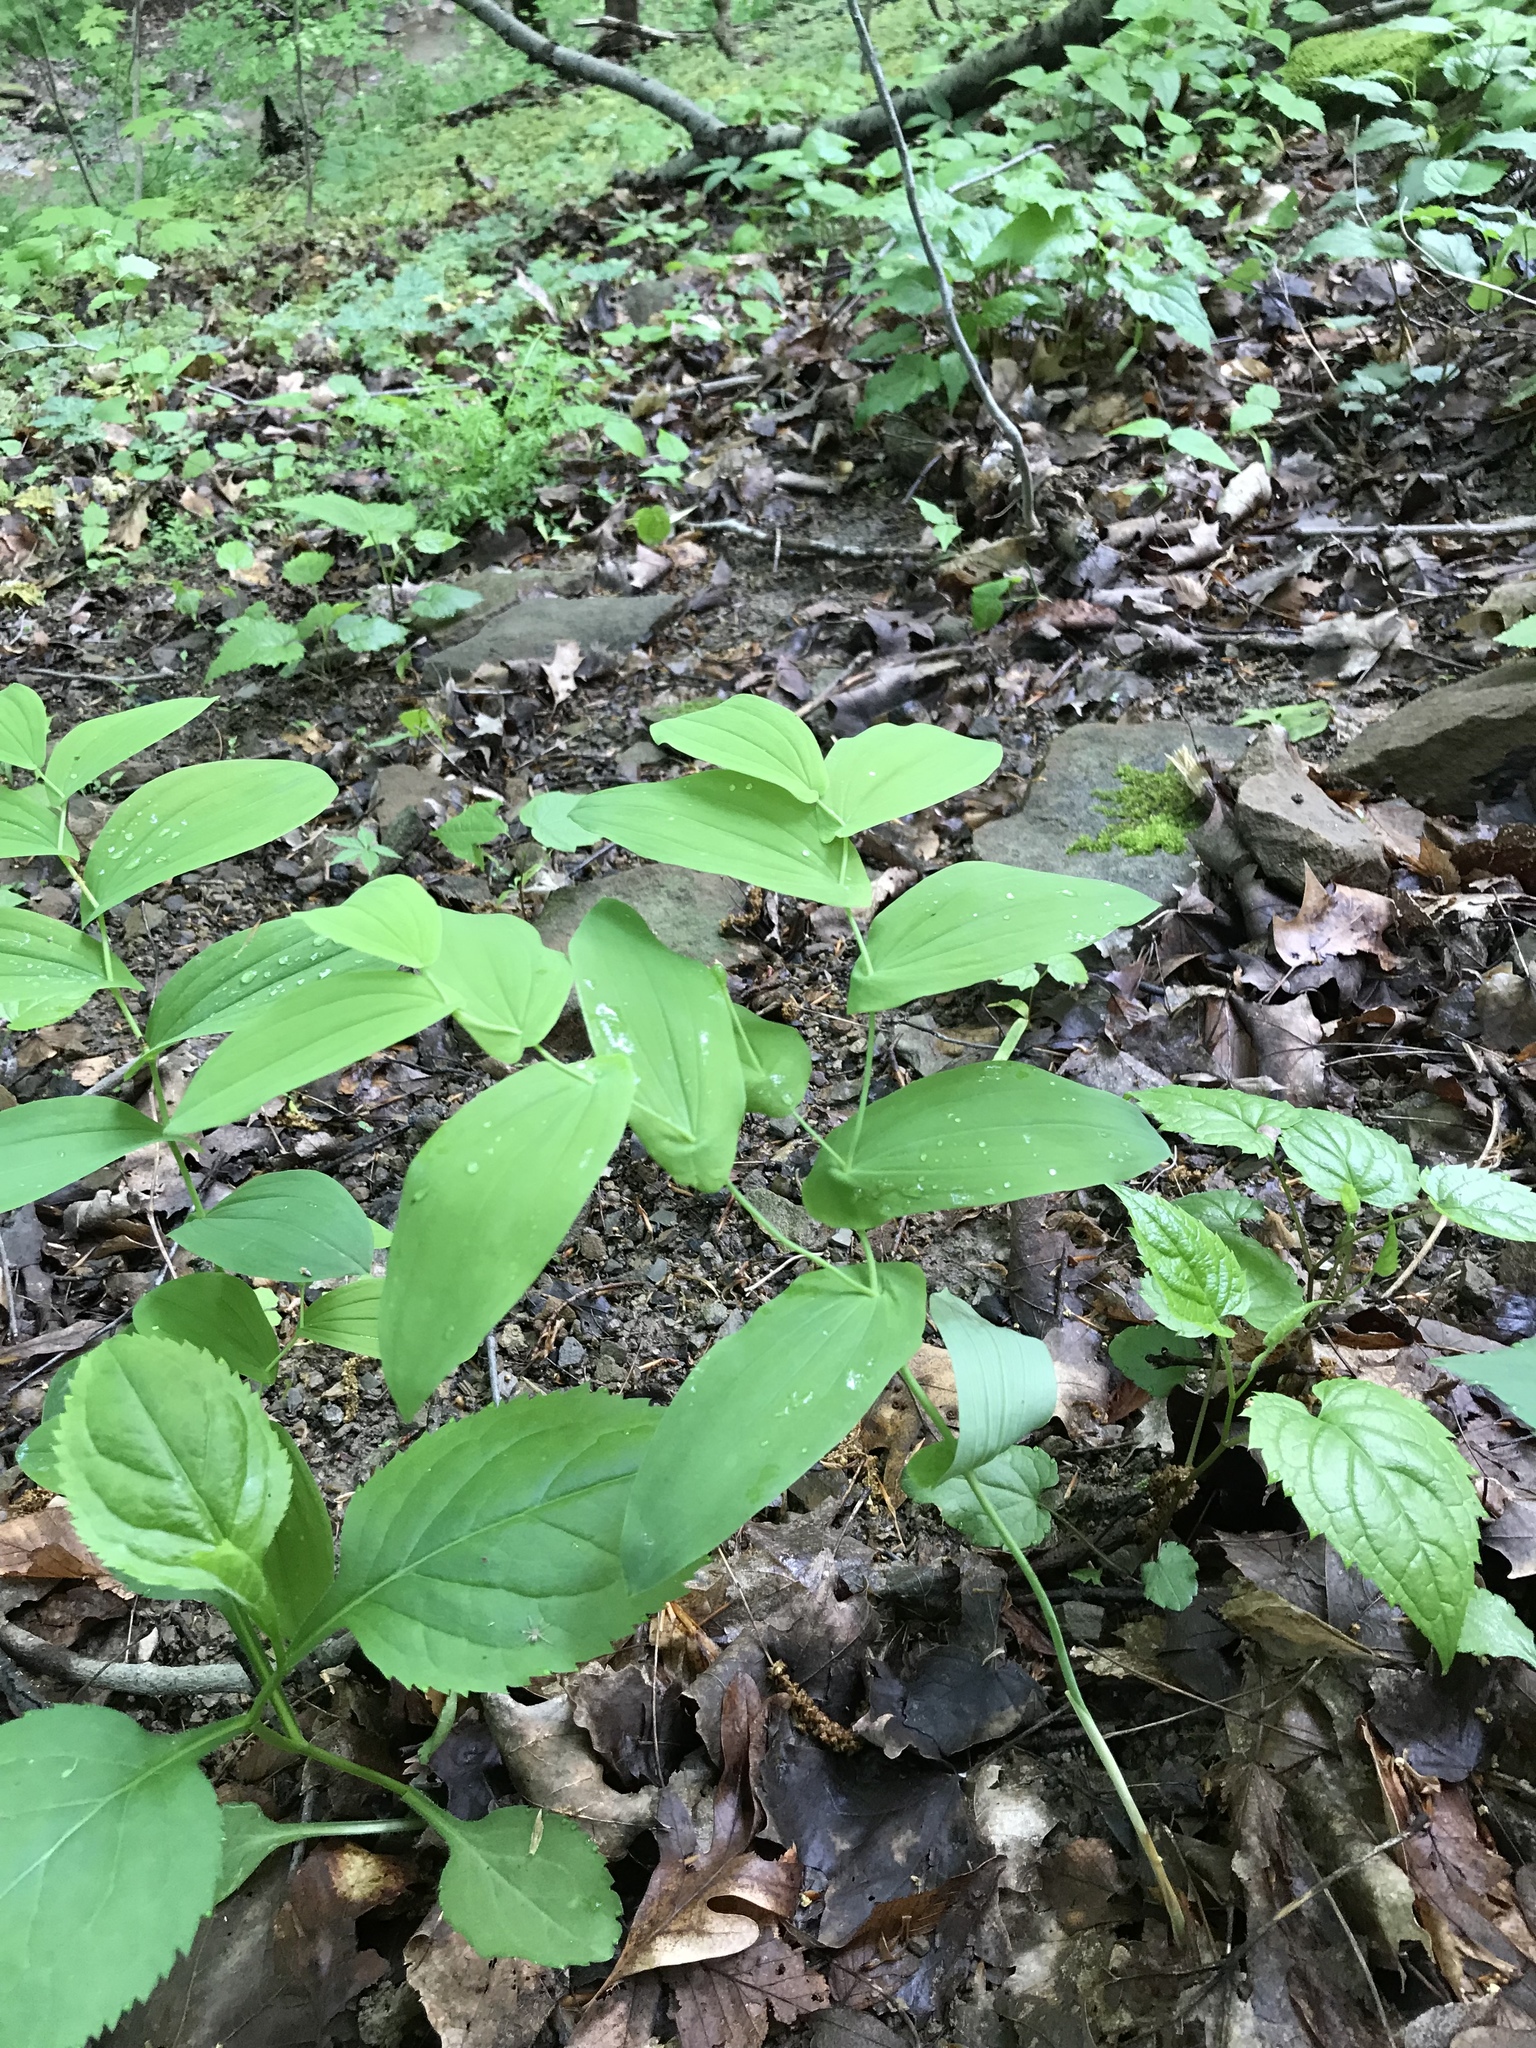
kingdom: Plantae
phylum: Tracheophyta
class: Liliopsida
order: Liliales
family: Colchicaceae
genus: Uvularia
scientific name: Uvularia grandiflora
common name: Bellwort
